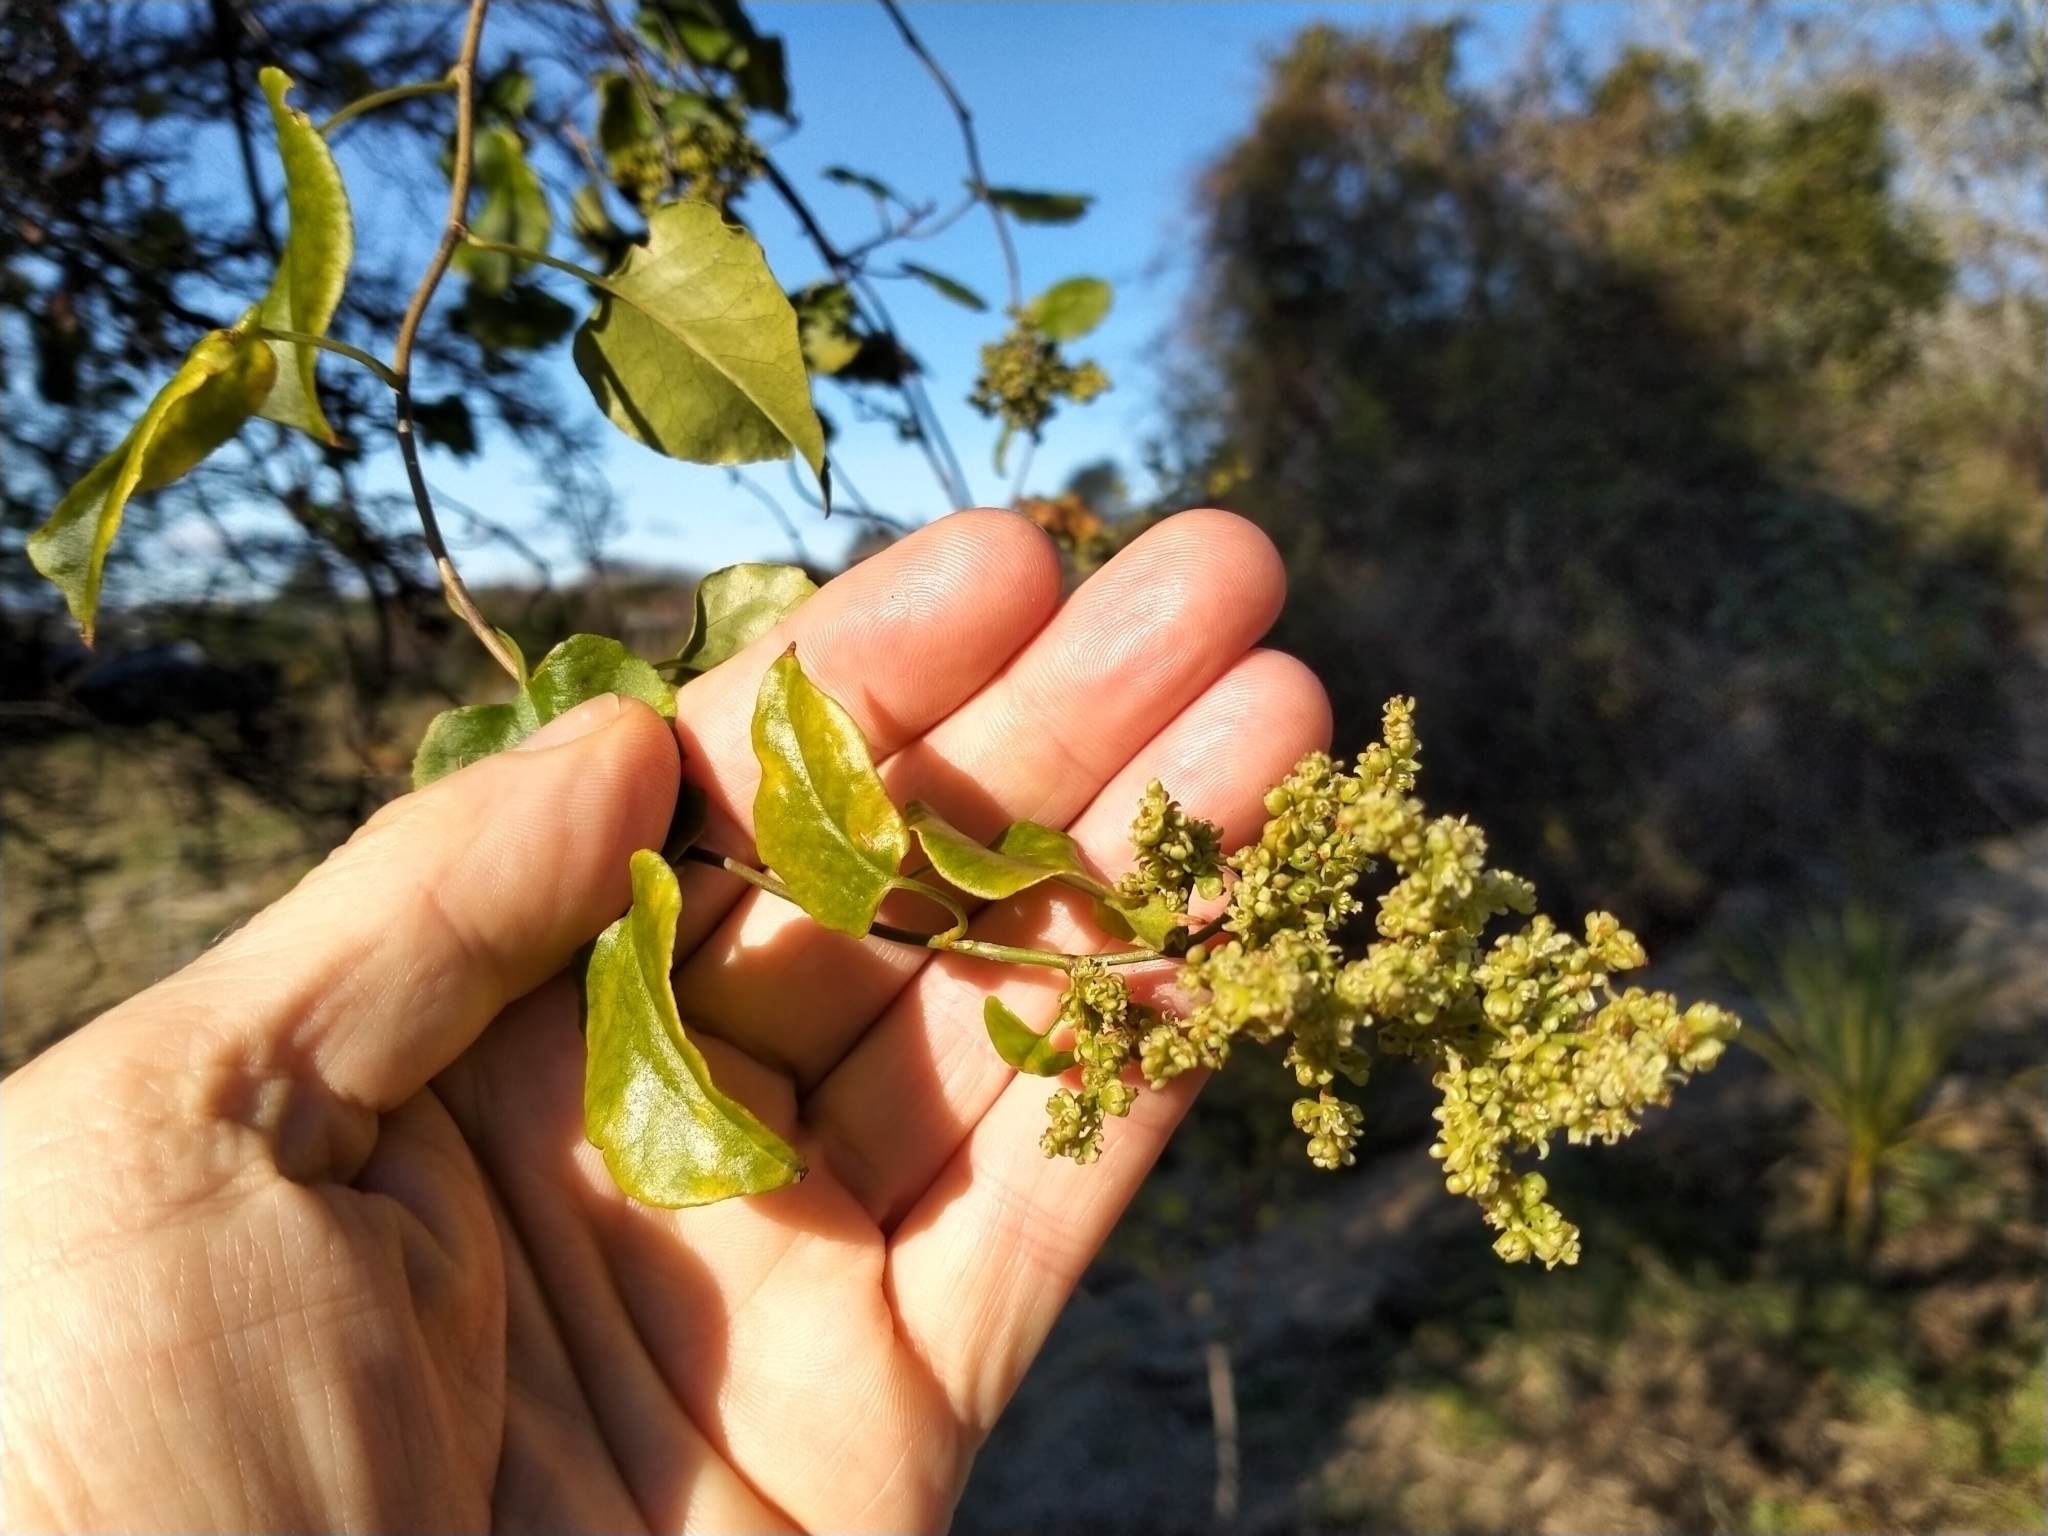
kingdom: Plantae
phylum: Tracheophyta
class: Magnoliopsida
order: Caryophyllales
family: Polygonaceae
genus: Muehlenbeckia
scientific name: Muehlenbeckia australis
